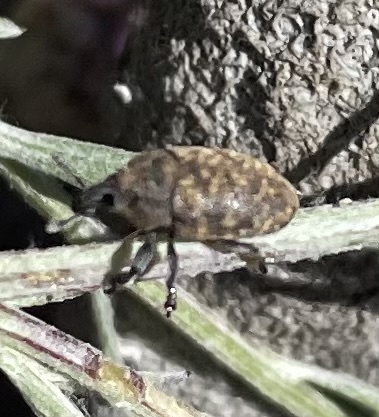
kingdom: Animalia
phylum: Arthropoda
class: Insecta
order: Coleoptera
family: Curculionidae
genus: Larinus
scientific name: Larinus obtusus
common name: Weevil
